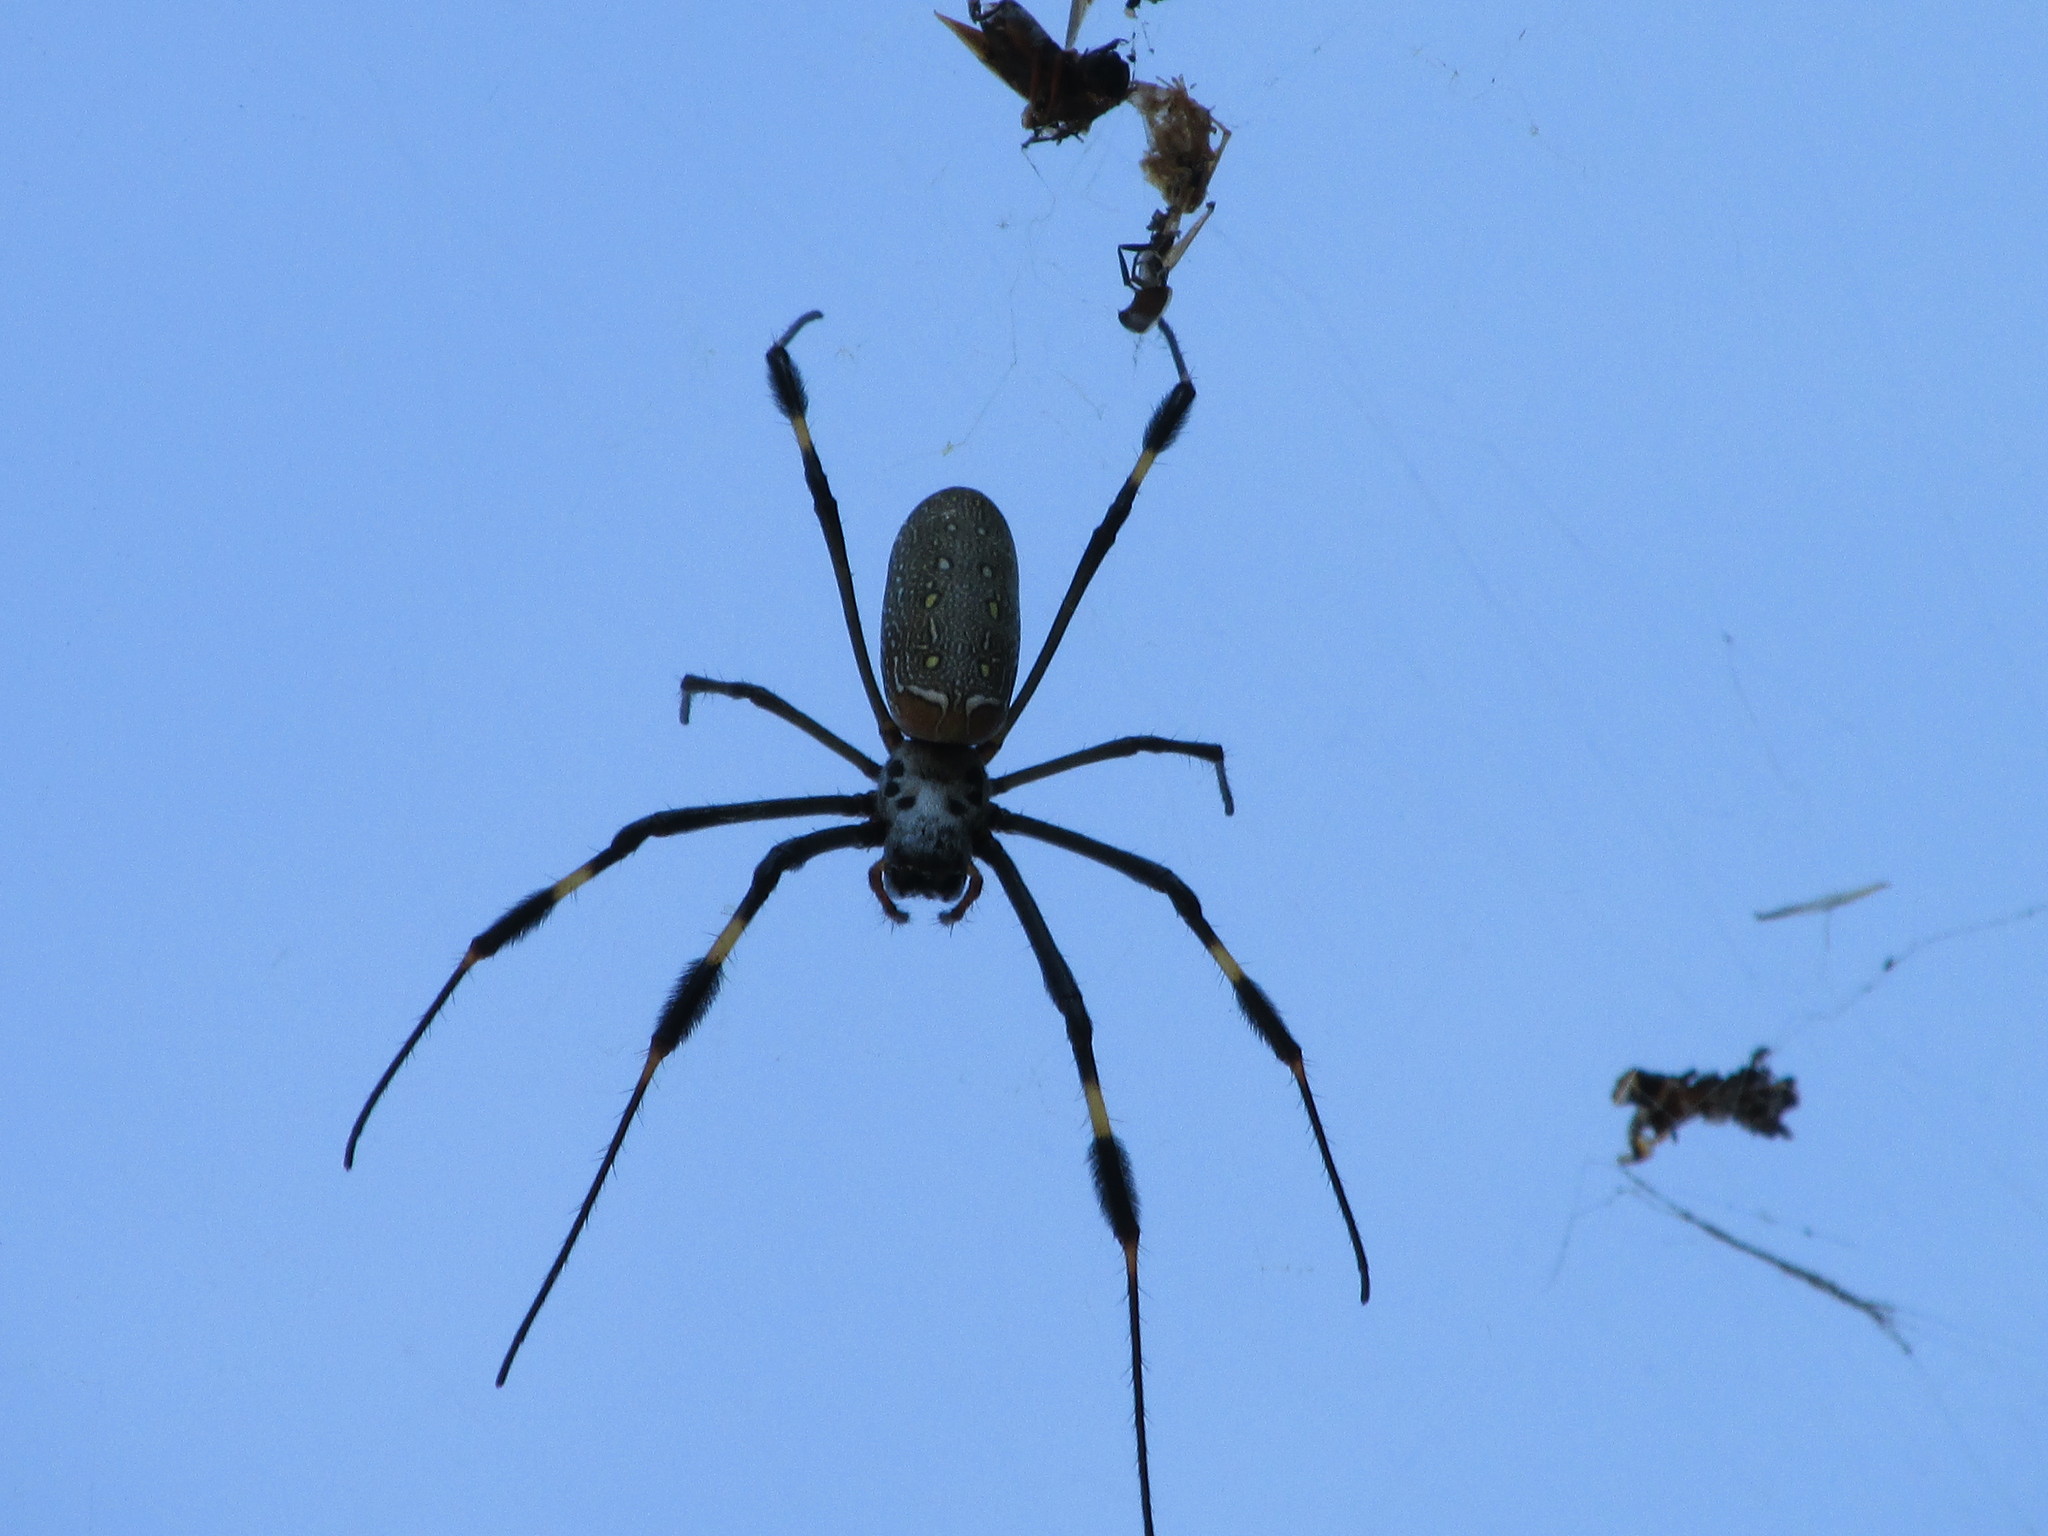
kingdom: Animalia
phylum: Arthropoda
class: Arachnida
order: Araneae
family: Araneidae
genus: Trichonephila
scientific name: Trichonephila clavipes
